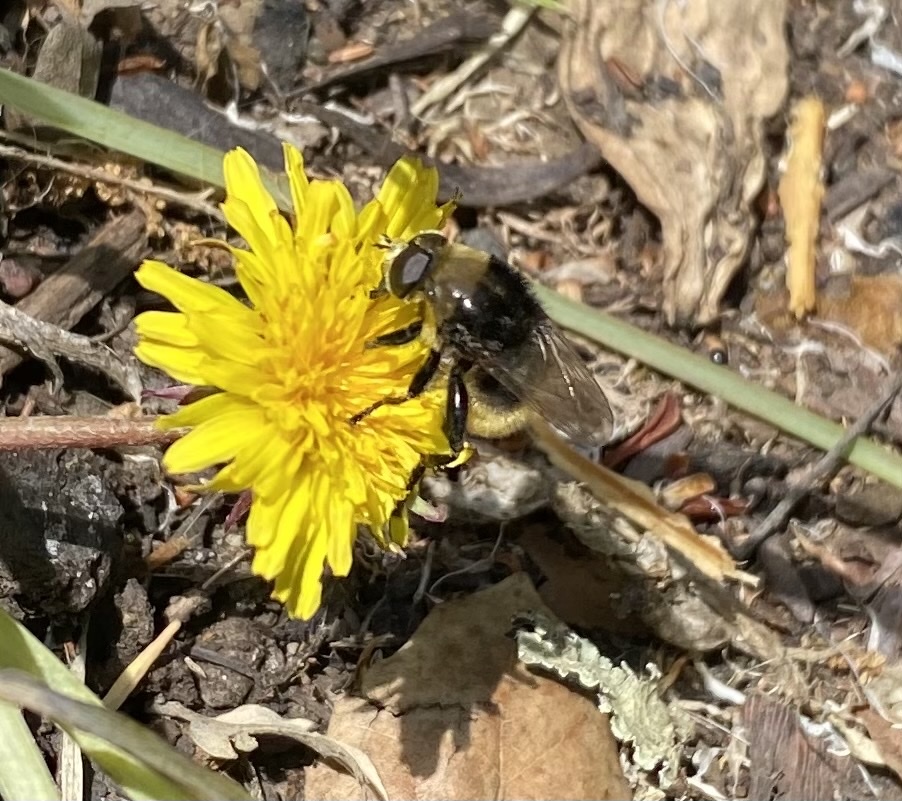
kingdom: Animalia
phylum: Arthropoda
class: Insecta
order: Diptera
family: Syrphidae
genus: Merodon
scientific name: Merodon equestris
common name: Greater bulb-fly
